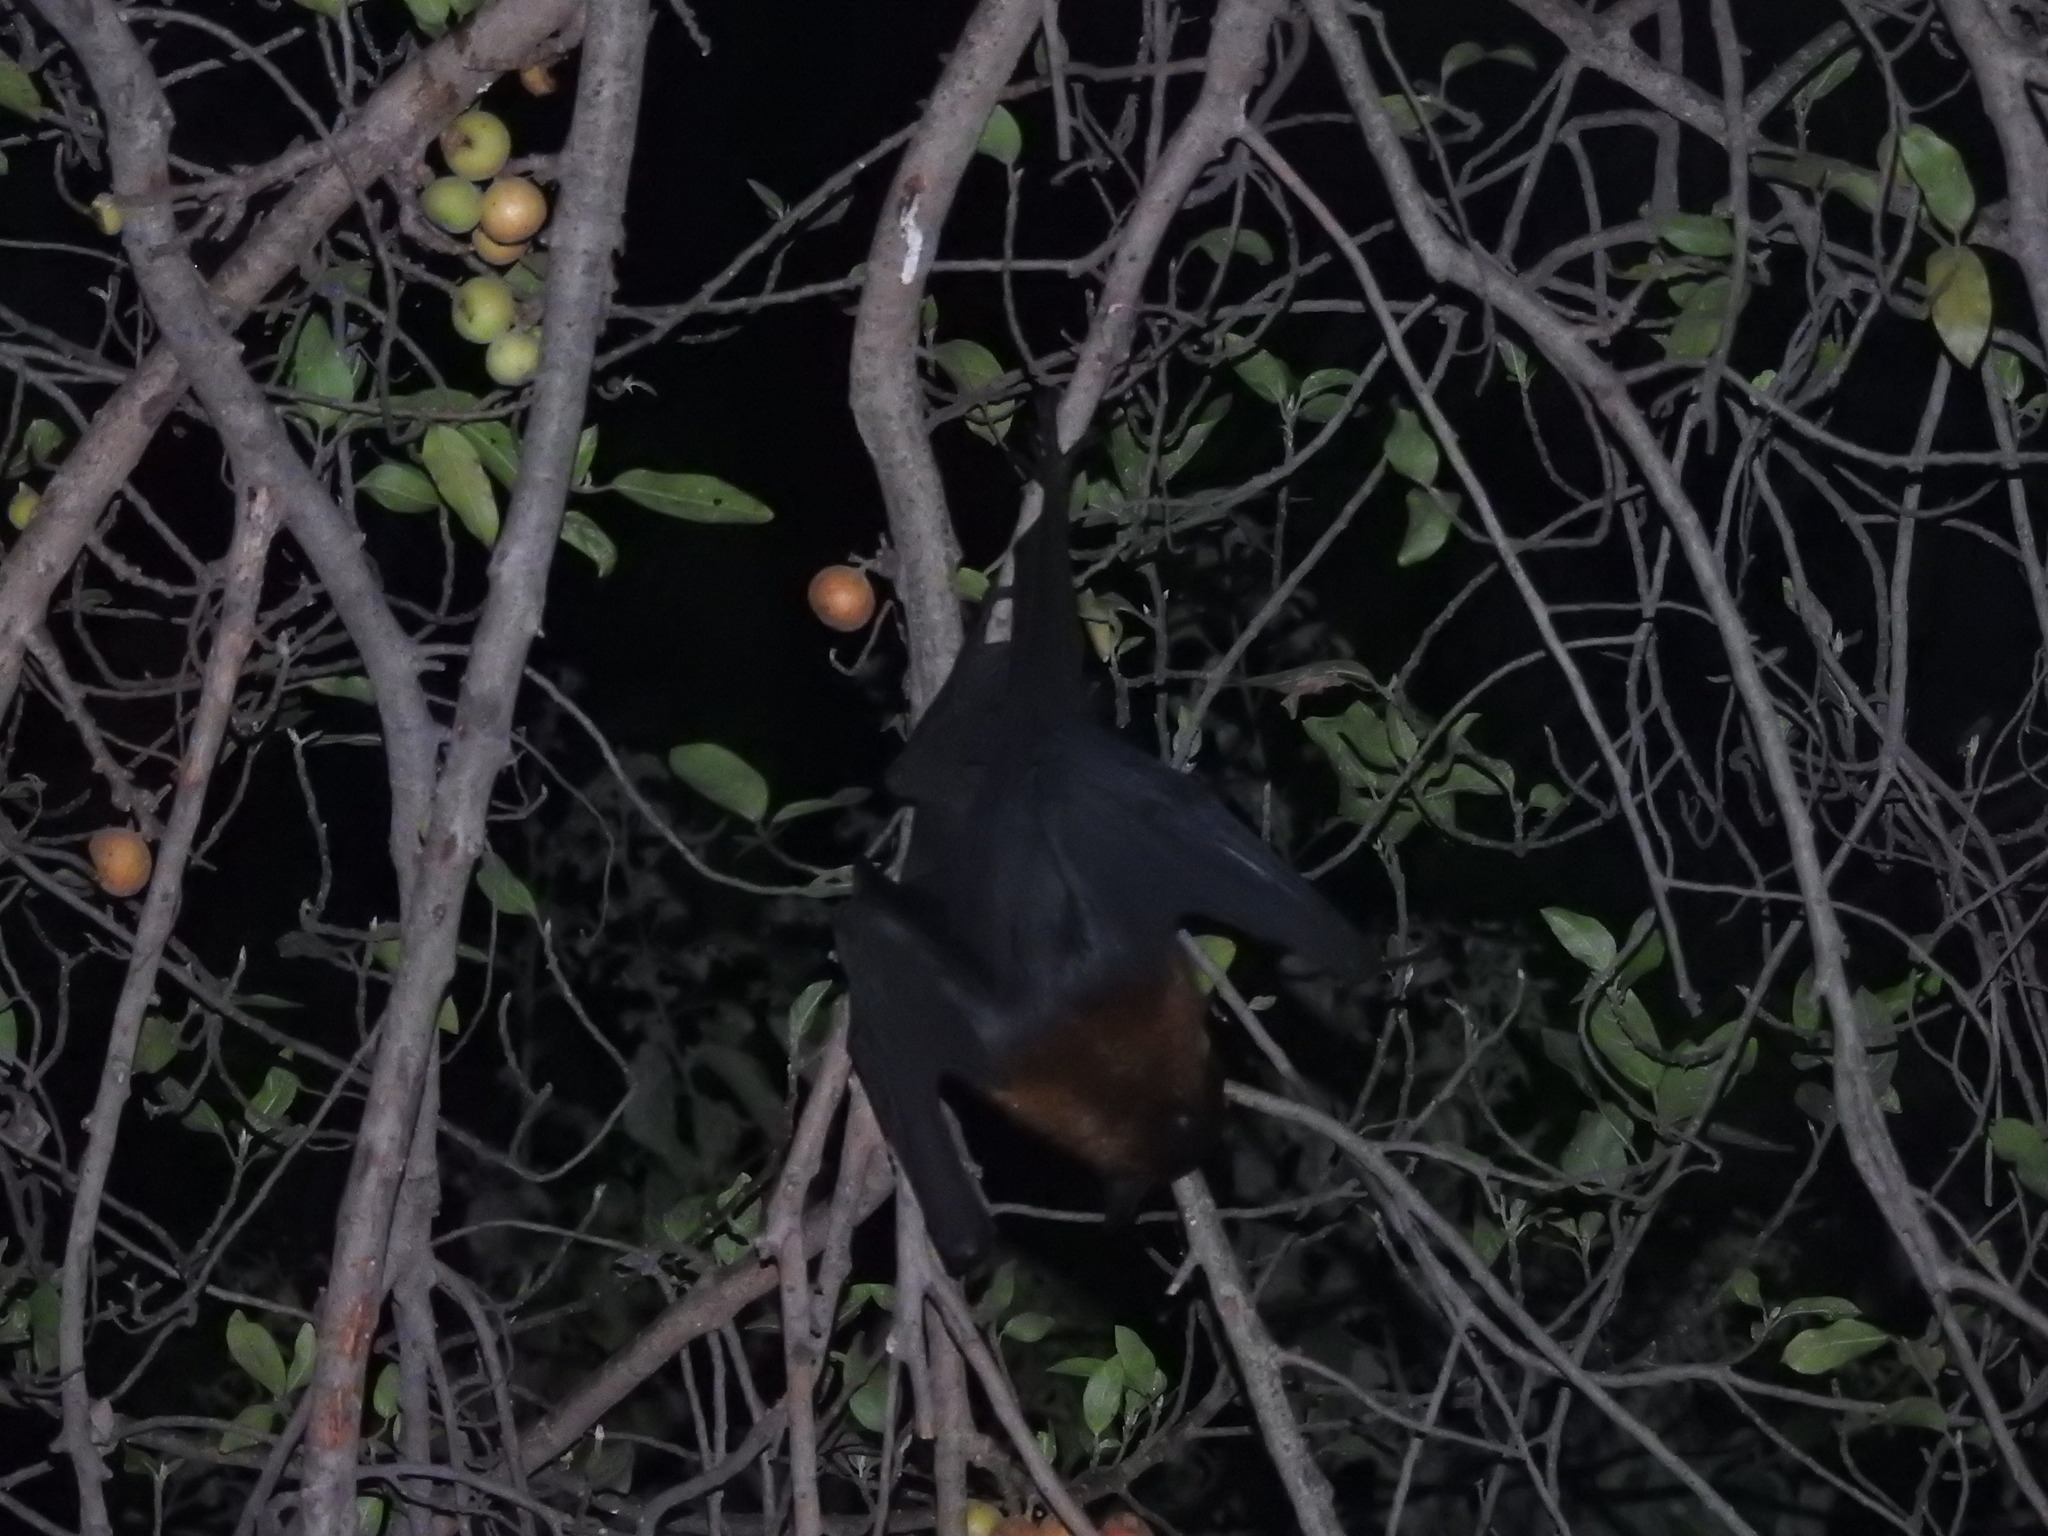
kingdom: Animalia
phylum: Chordata
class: Mammalia
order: Chiroptera
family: Pteropodidae
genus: Pteropus
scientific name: Pteropus vampyrus
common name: Large flying fox
